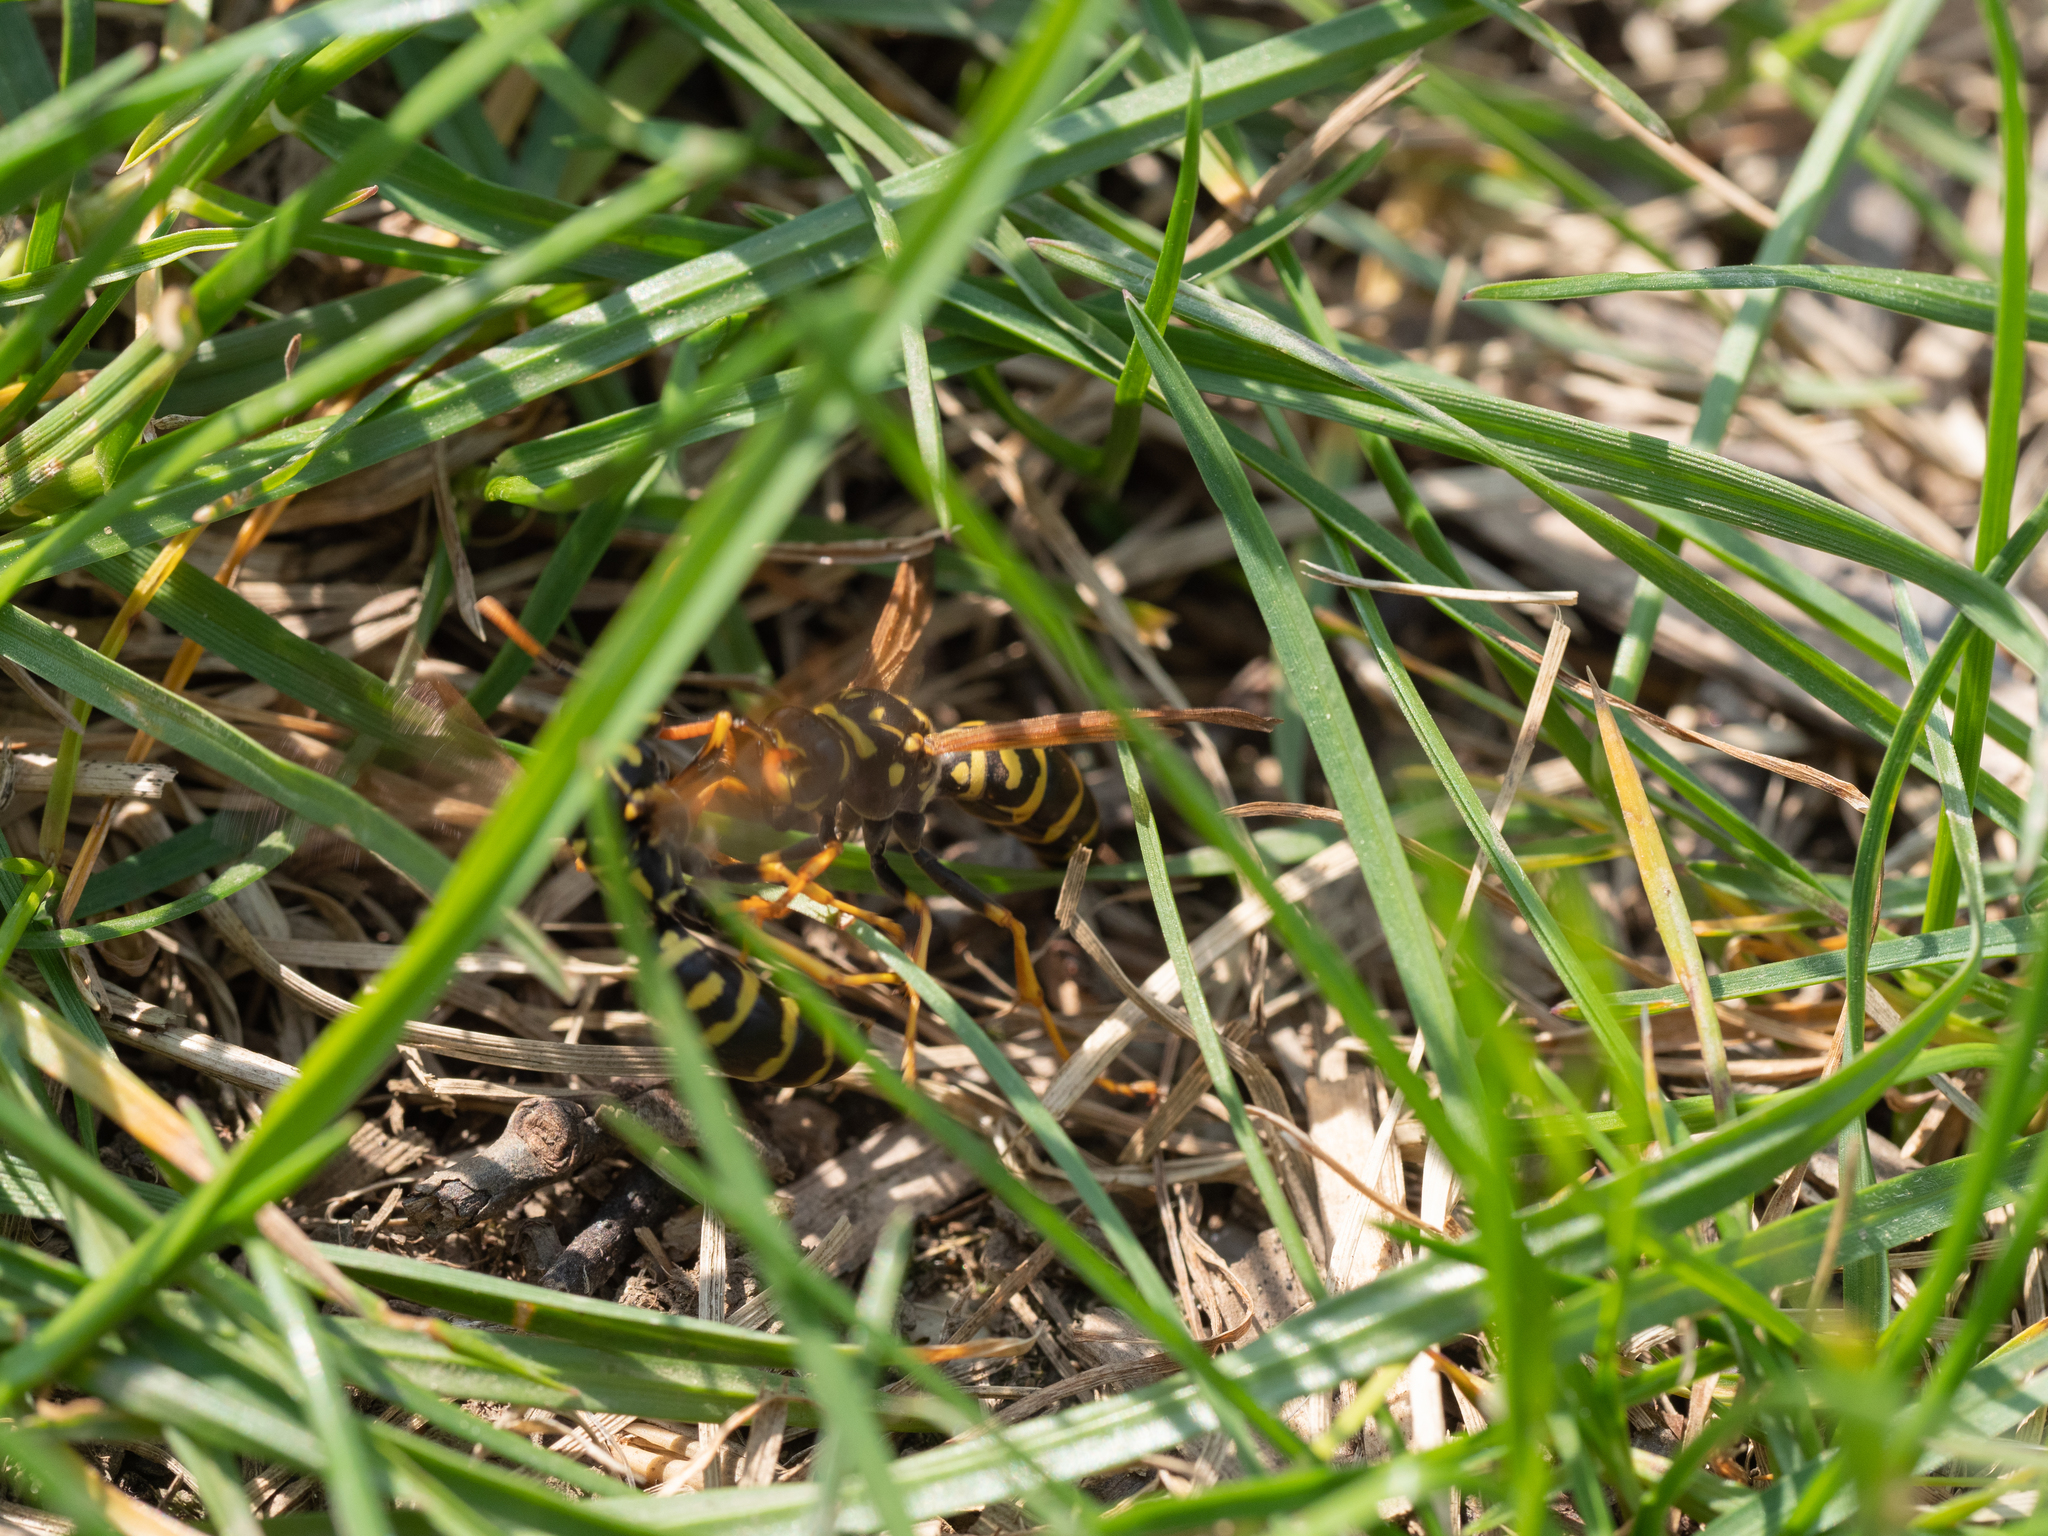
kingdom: Animalia
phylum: Arthropoda
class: Insecta
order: Hymenoptera
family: Eumenidae
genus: Polistes
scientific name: Polistes dominula
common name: Paper wasp
